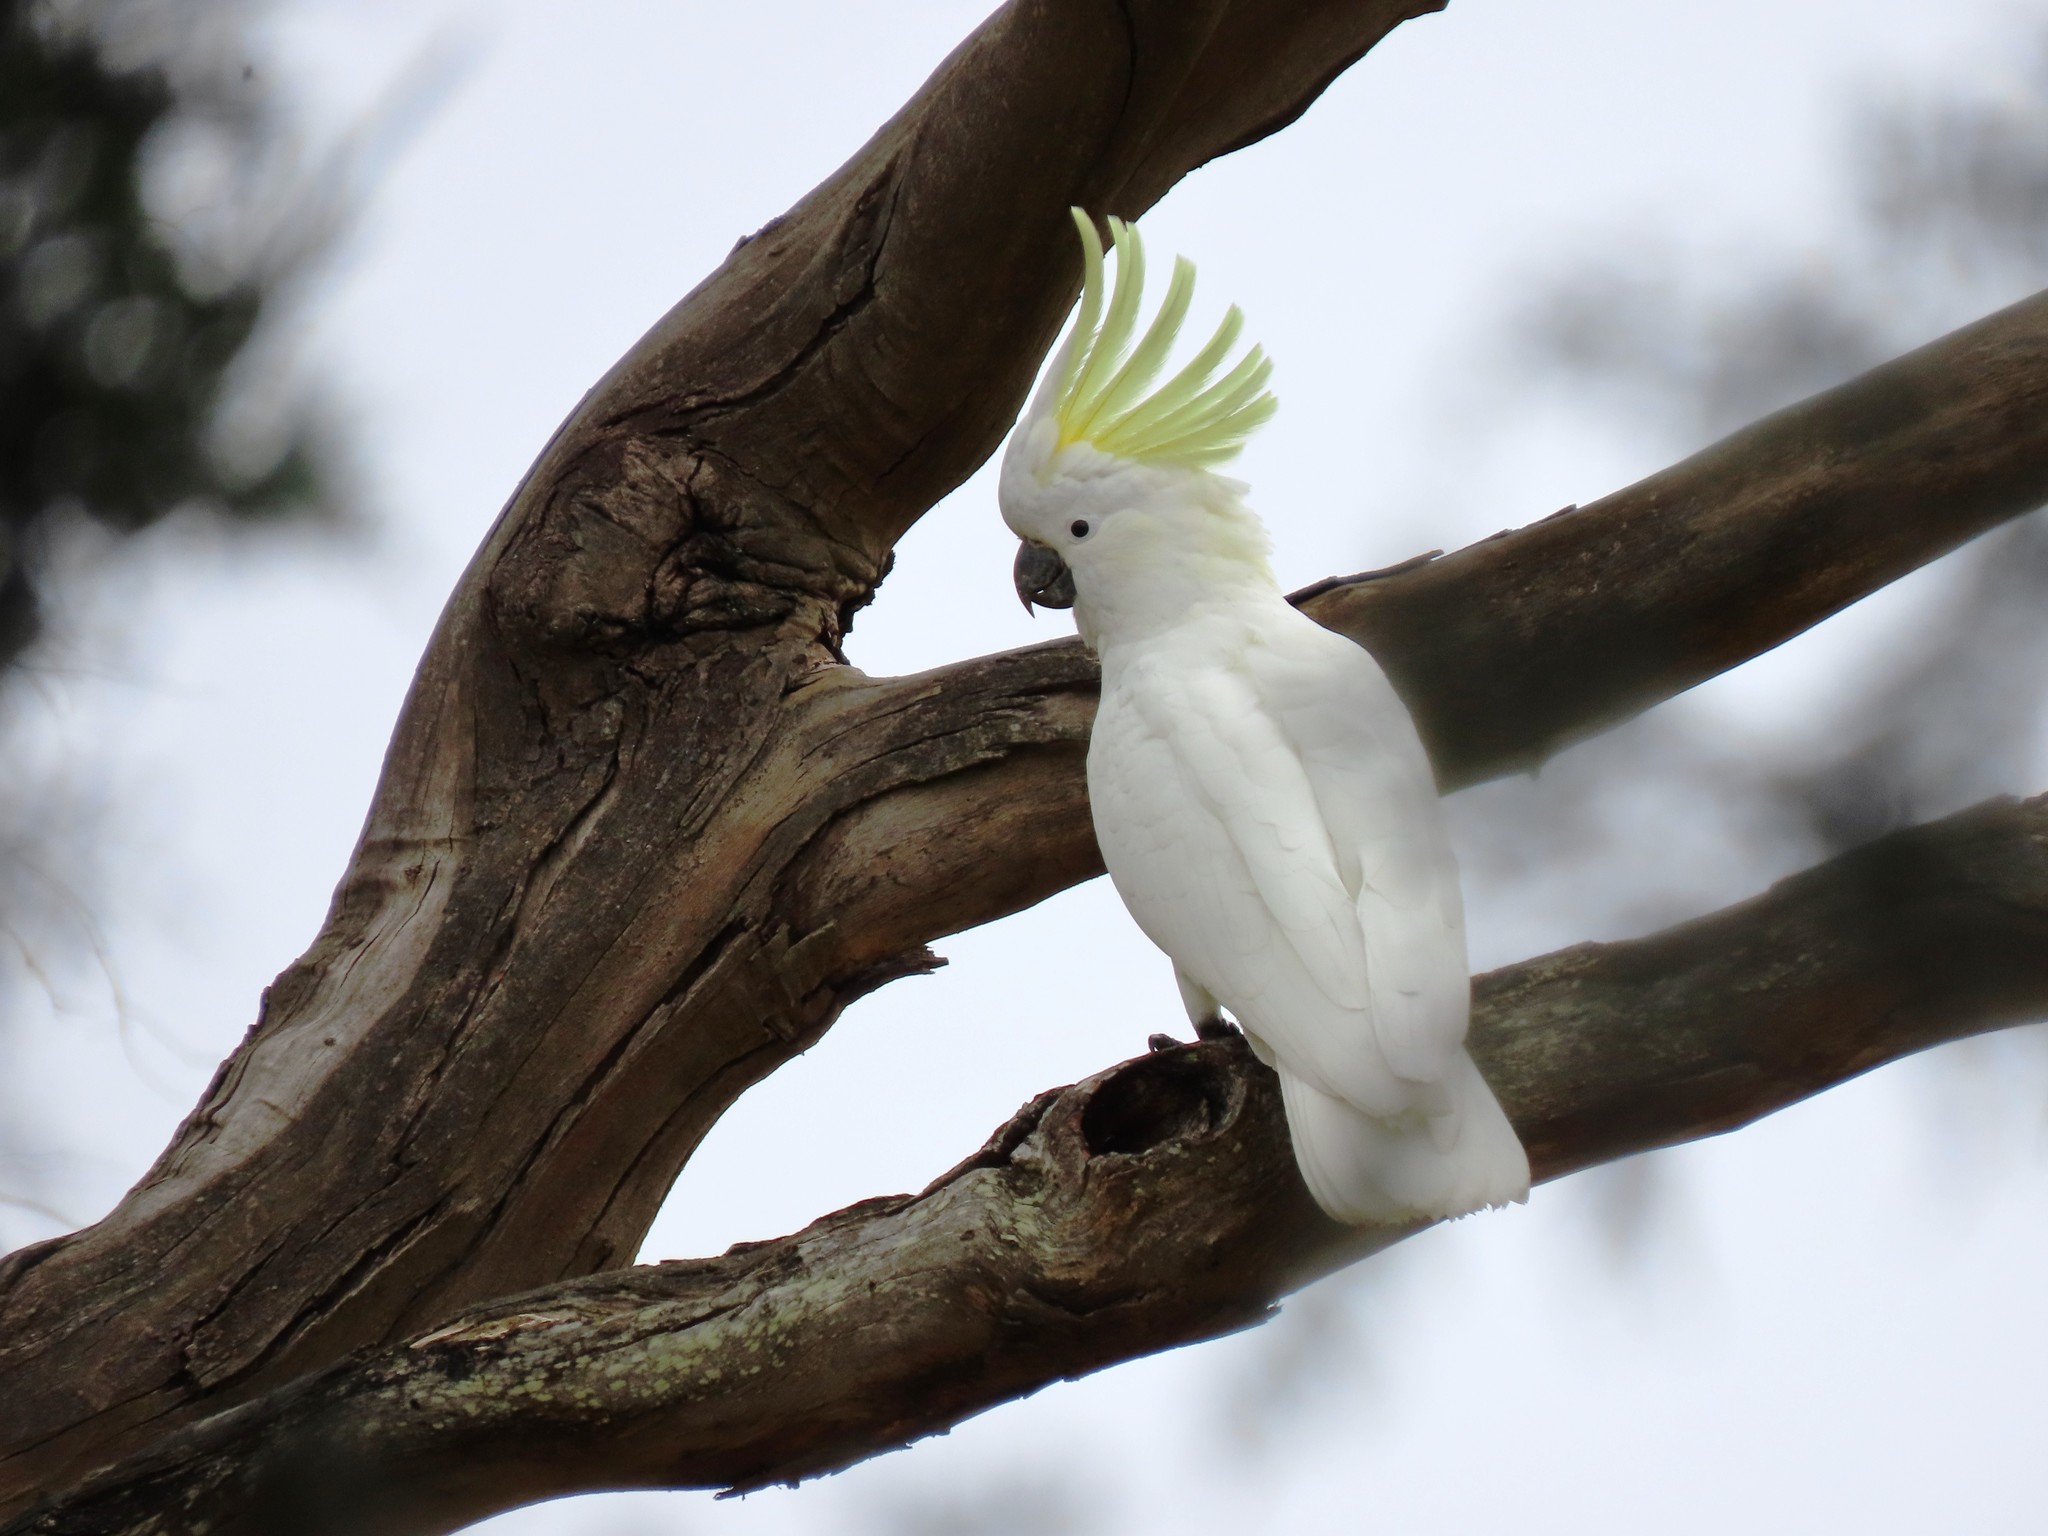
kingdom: Animalia
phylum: Chordata
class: Aves
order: Psittaciformes
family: Psittacidae
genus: Cacatua
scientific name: Cacatua galerita
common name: Sulphur-crested cockatoo
